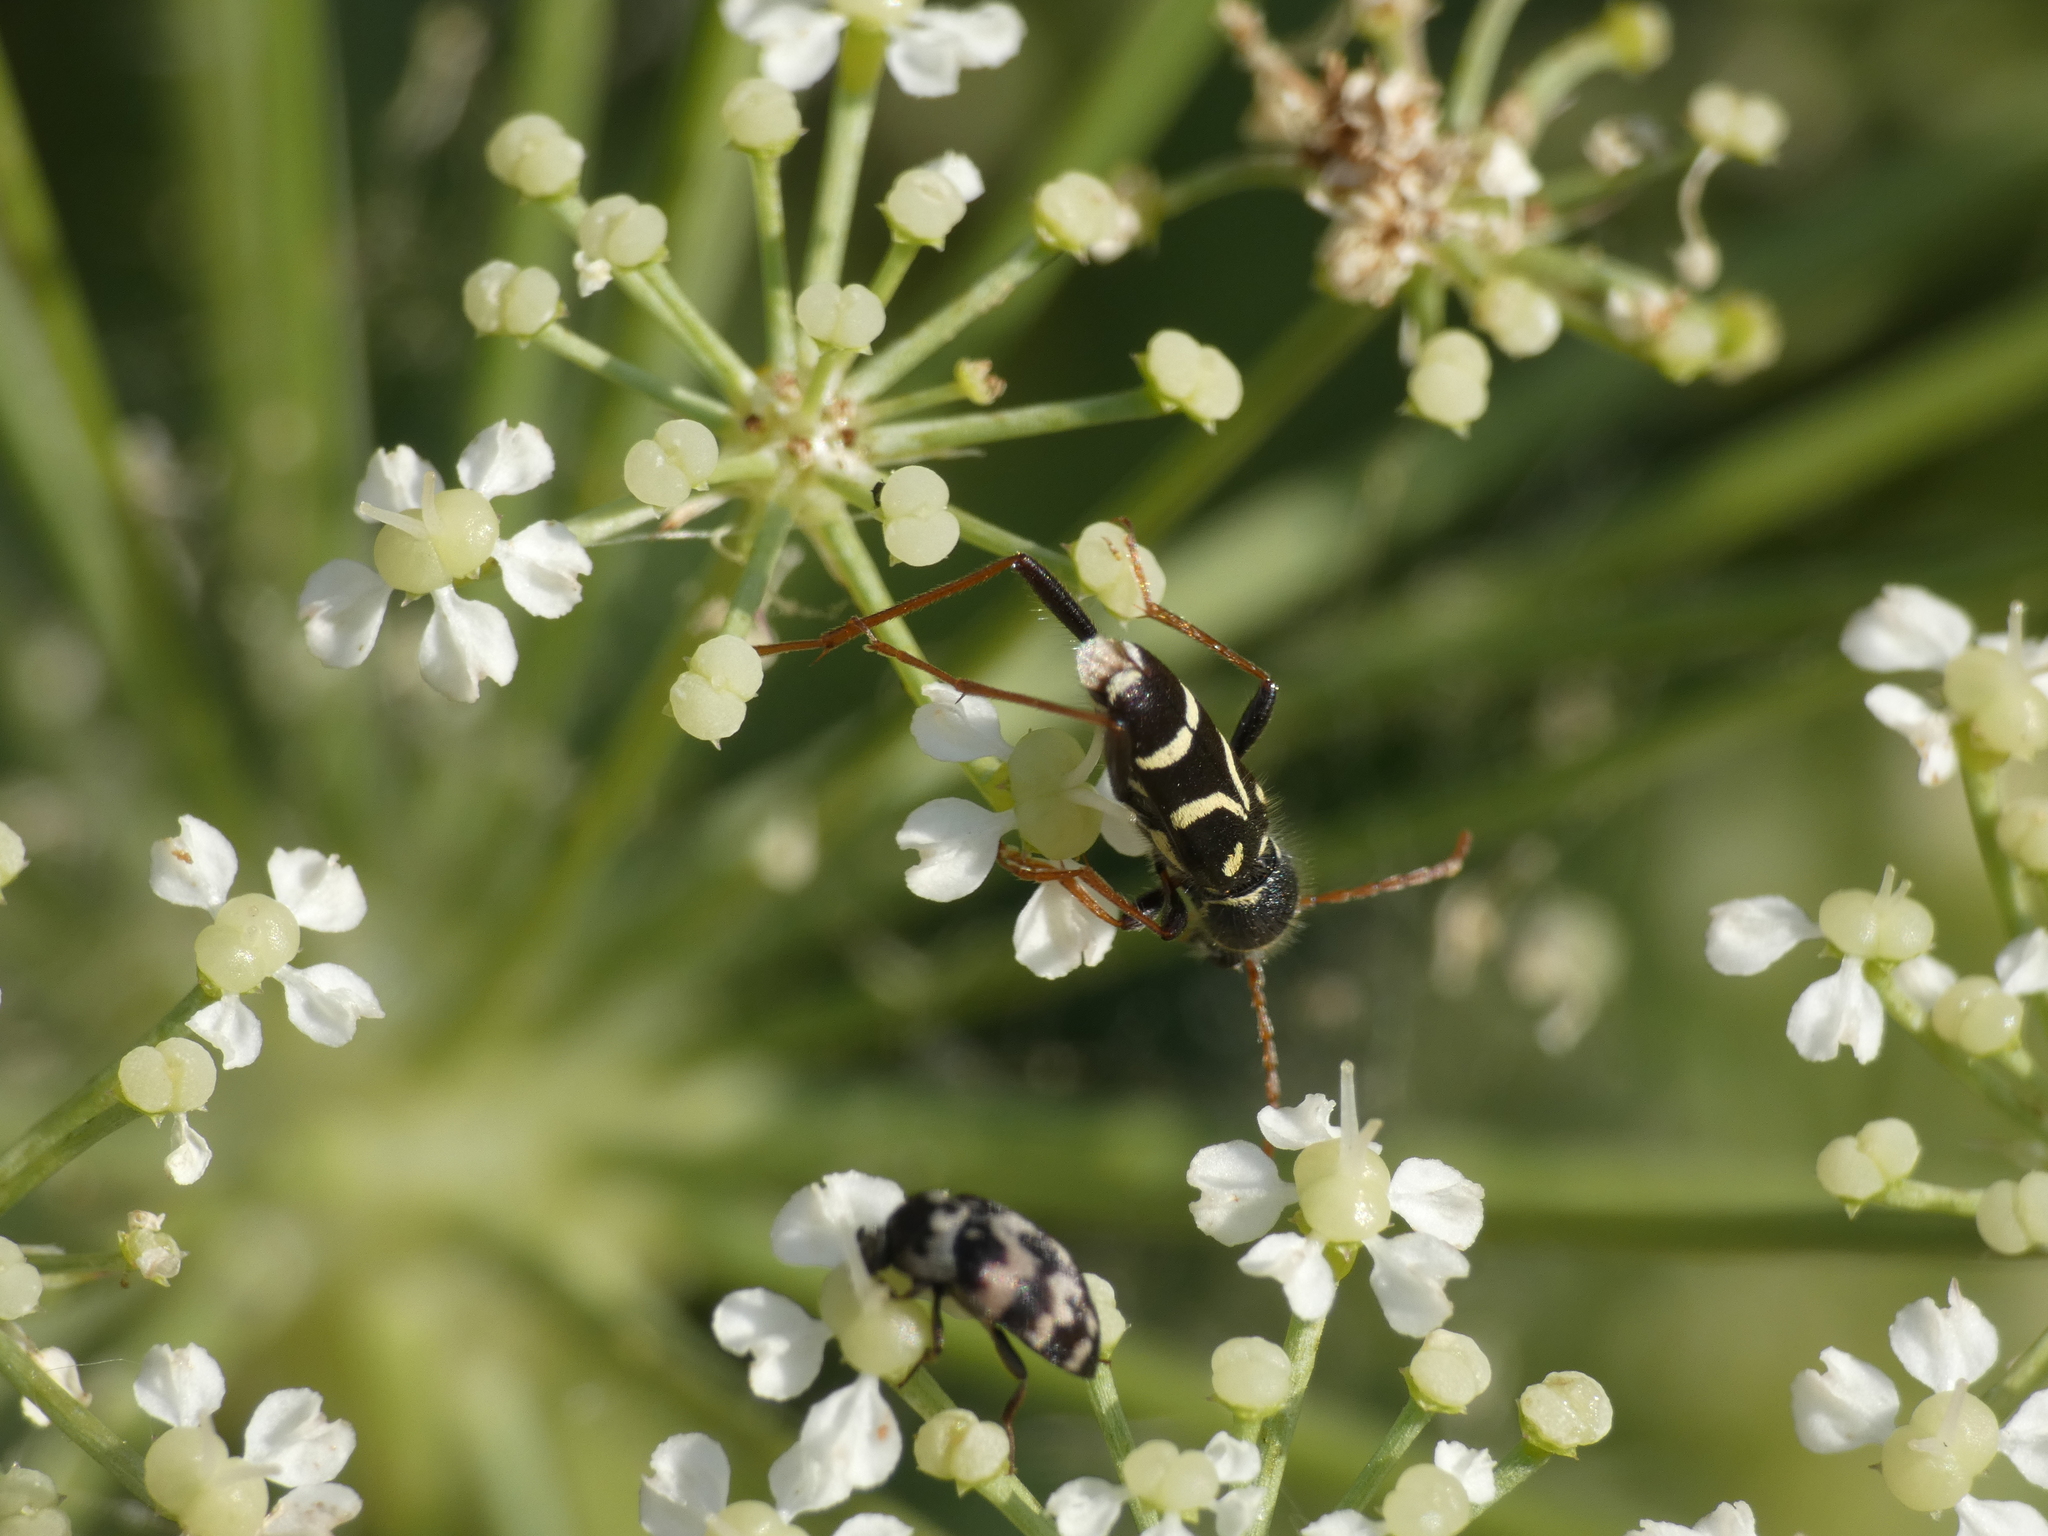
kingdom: Animalia
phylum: Arthropoda
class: Insecta
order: Coleoptera
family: Cerambycidae
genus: Clytus
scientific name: Clytus rhamni
